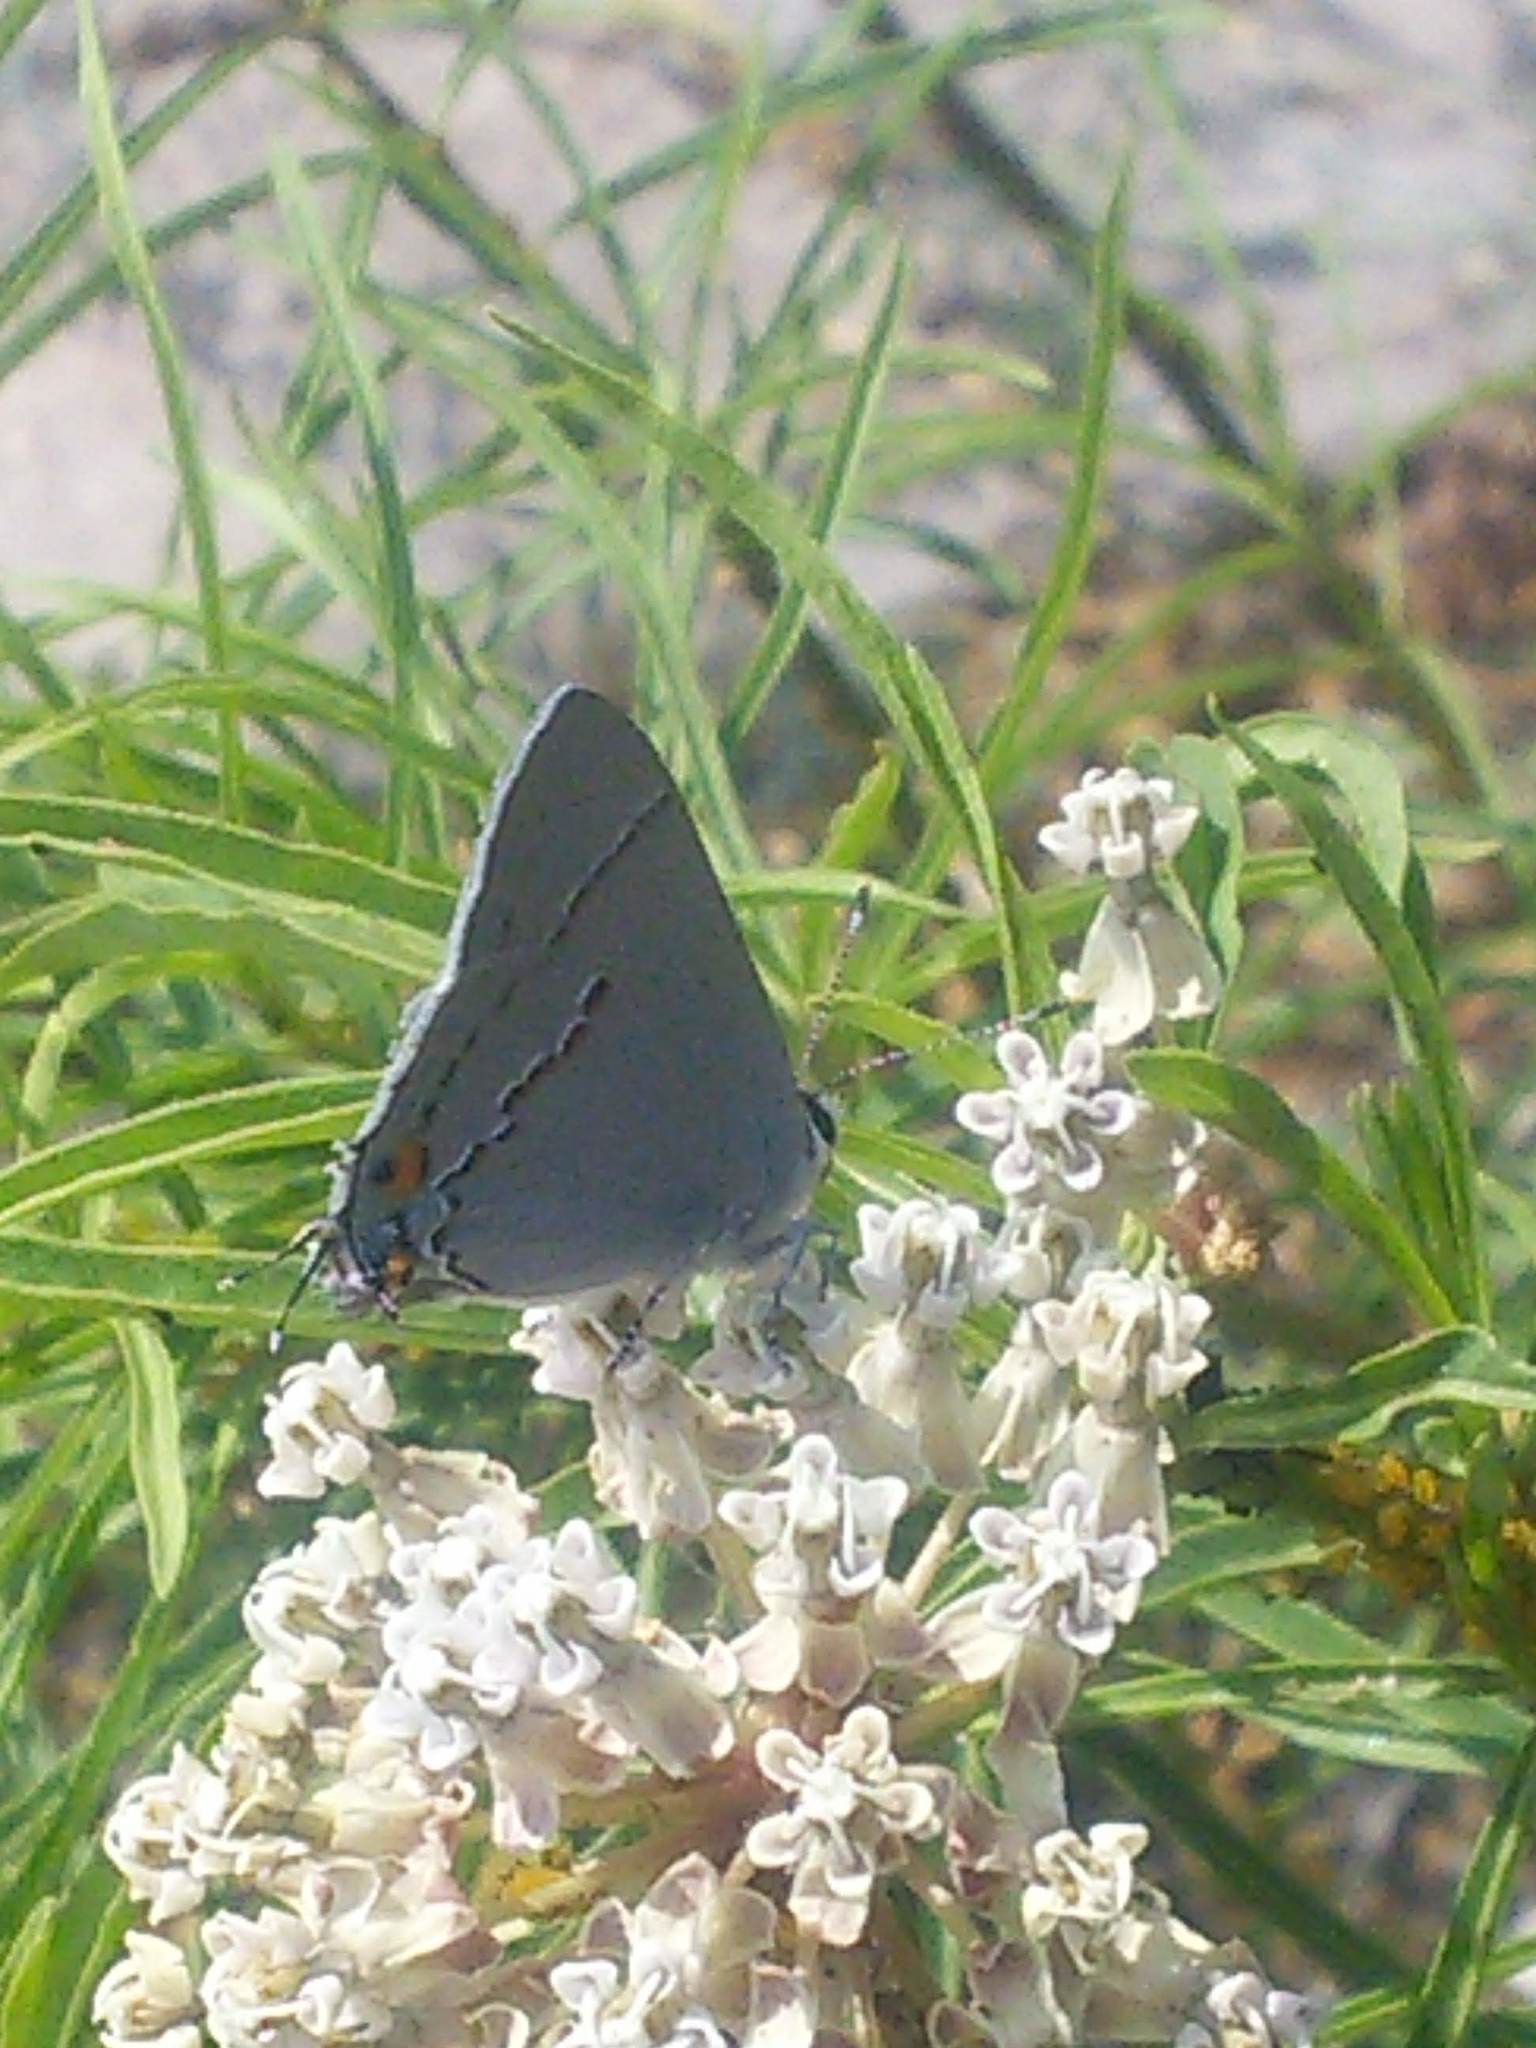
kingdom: Animalia
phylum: Arthropoda
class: Insecta
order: Lepidoptera
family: Lycaenidae
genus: Strymon
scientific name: Strymon melinus
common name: Gray hairstreak
